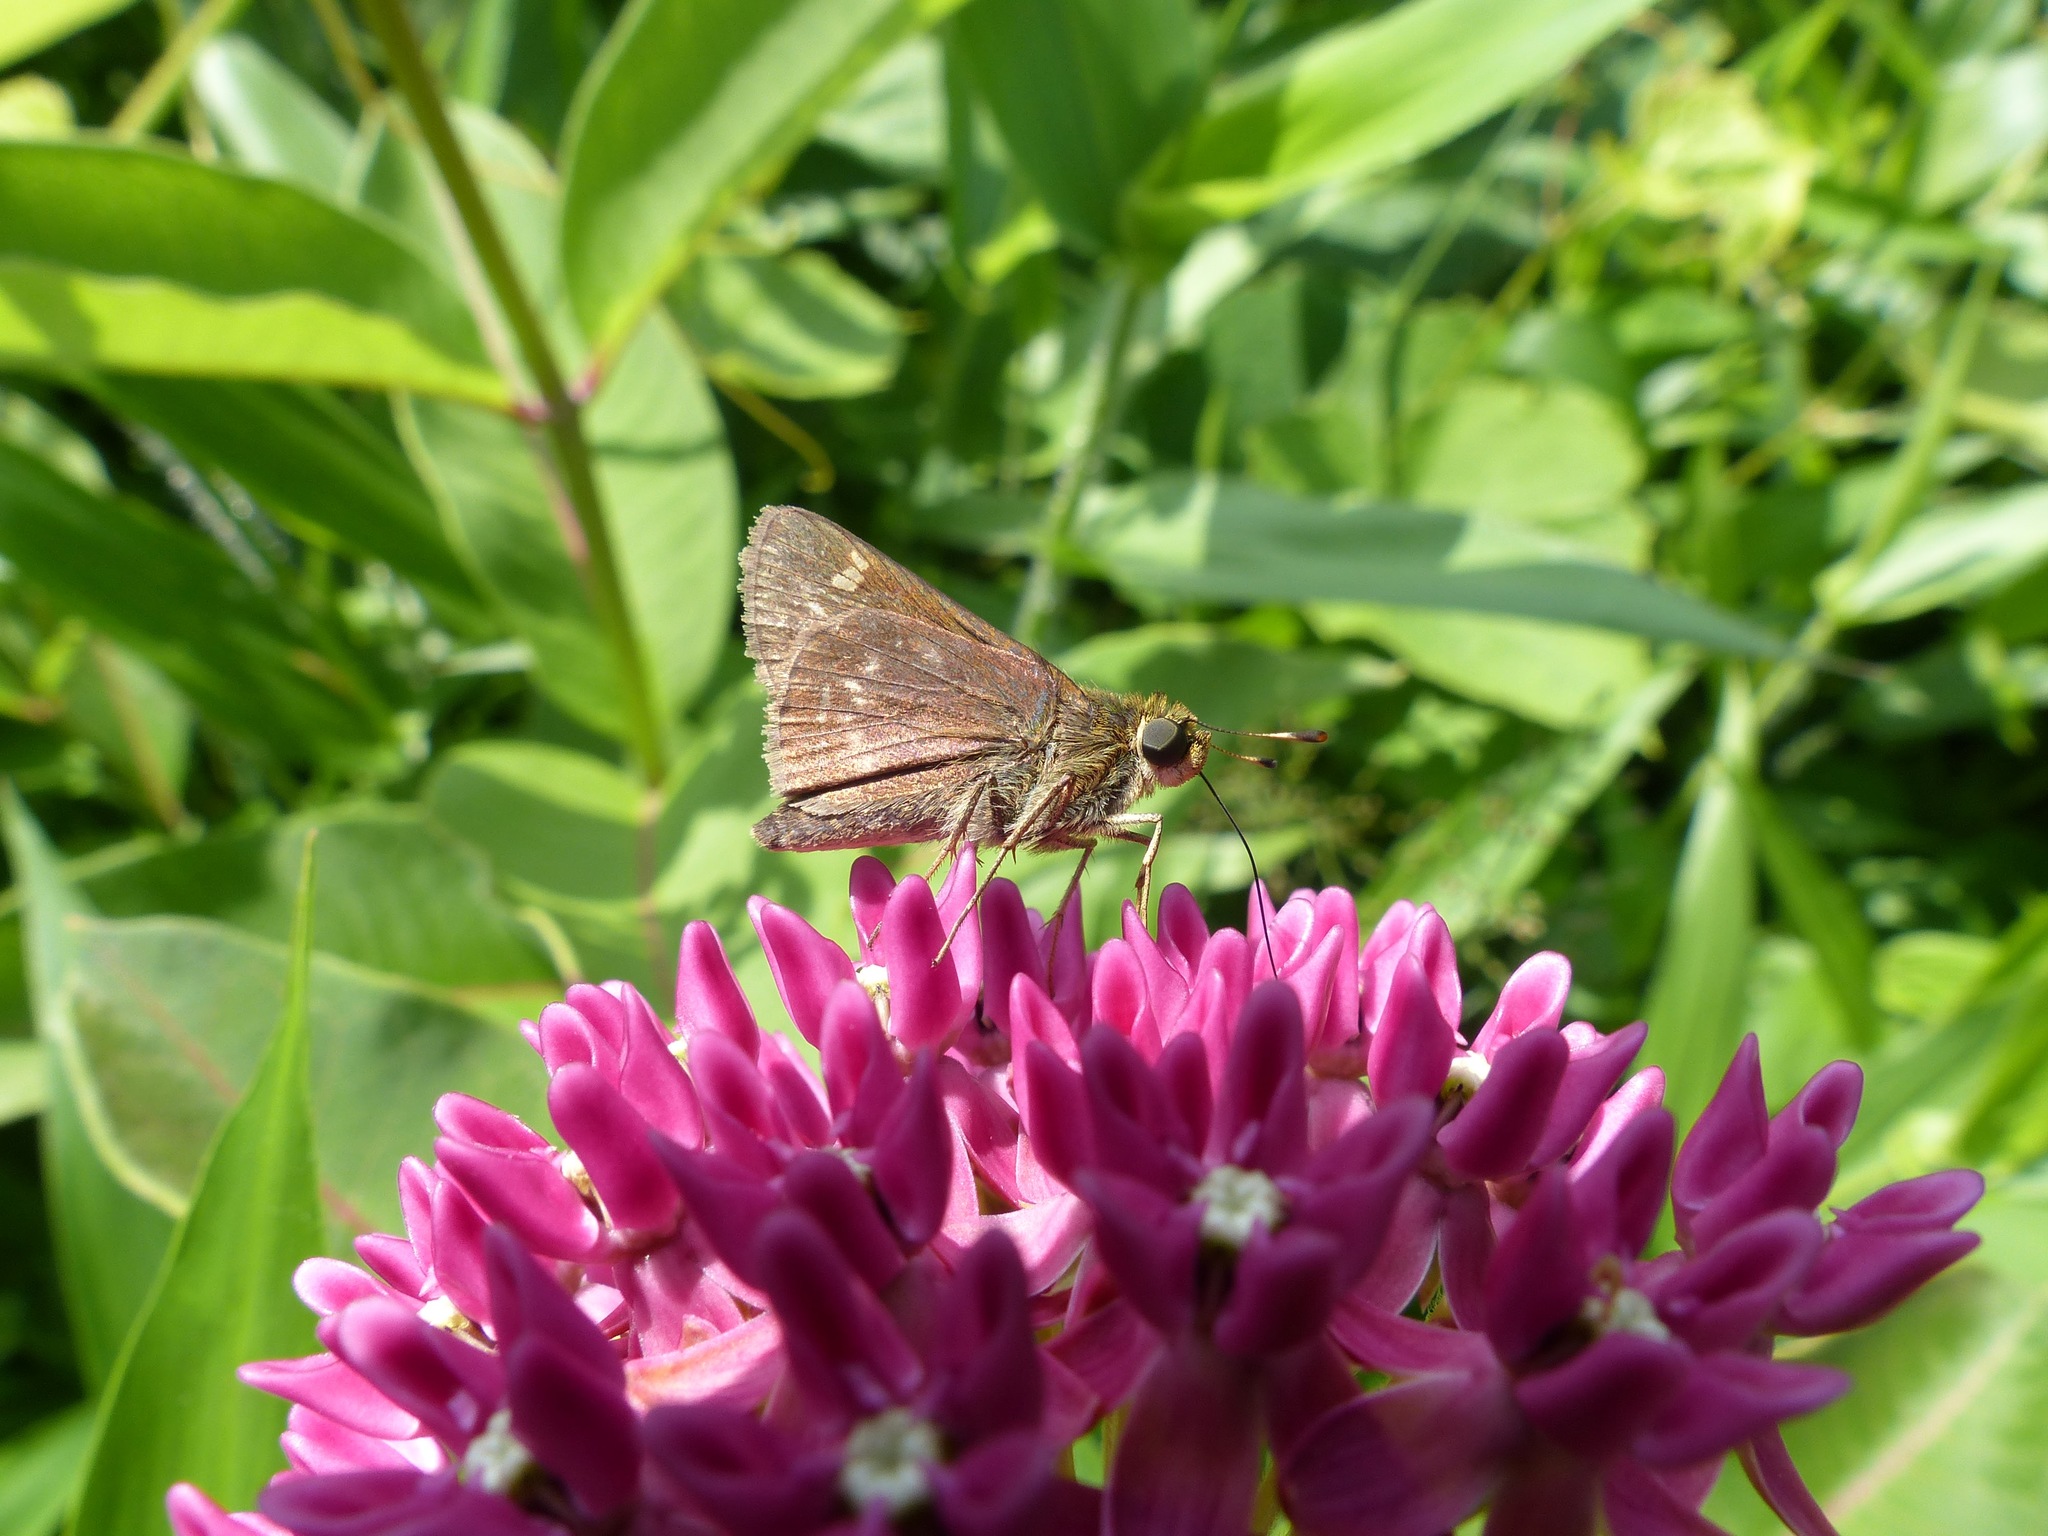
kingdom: Animalia
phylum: Arthropoda
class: Insecta
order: Lepidoptera
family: Hesperiidae
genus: Vernia
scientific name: Vernia verna
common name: Little glassywing
